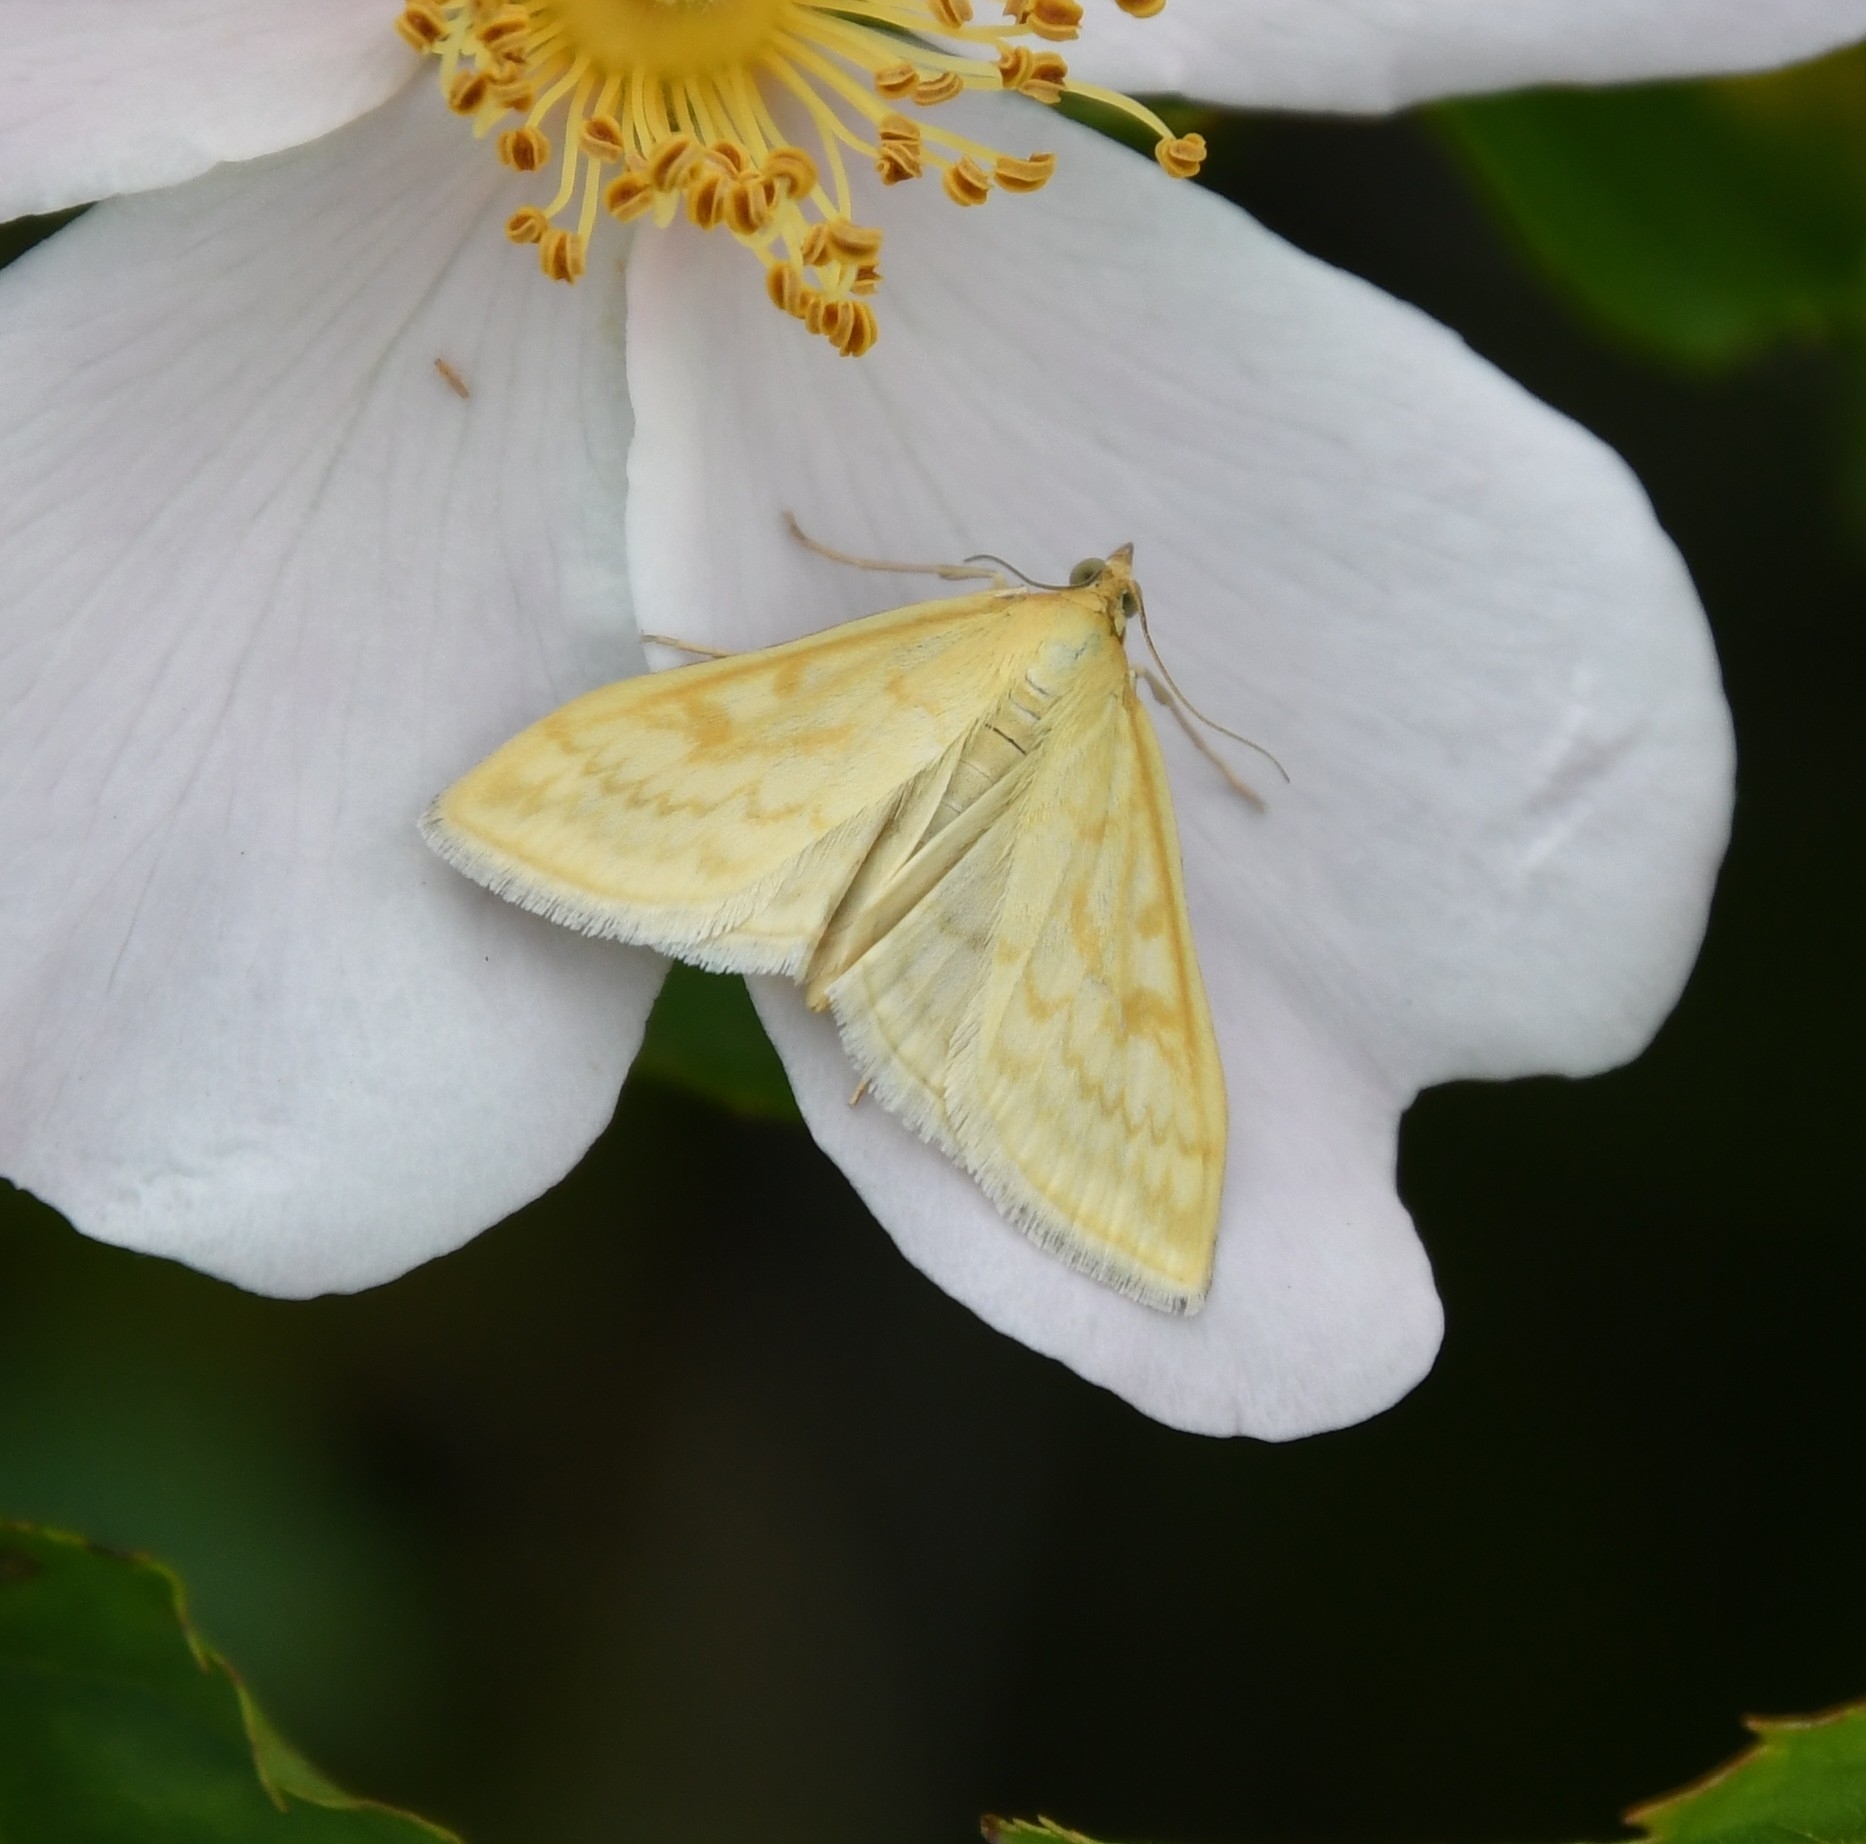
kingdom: Animalia
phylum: Arthropoda
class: Insecta
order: Lepidoptera
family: Crambidae
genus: Sitochroa
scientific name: Sitochroa verticalis
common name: Lesser pearl
